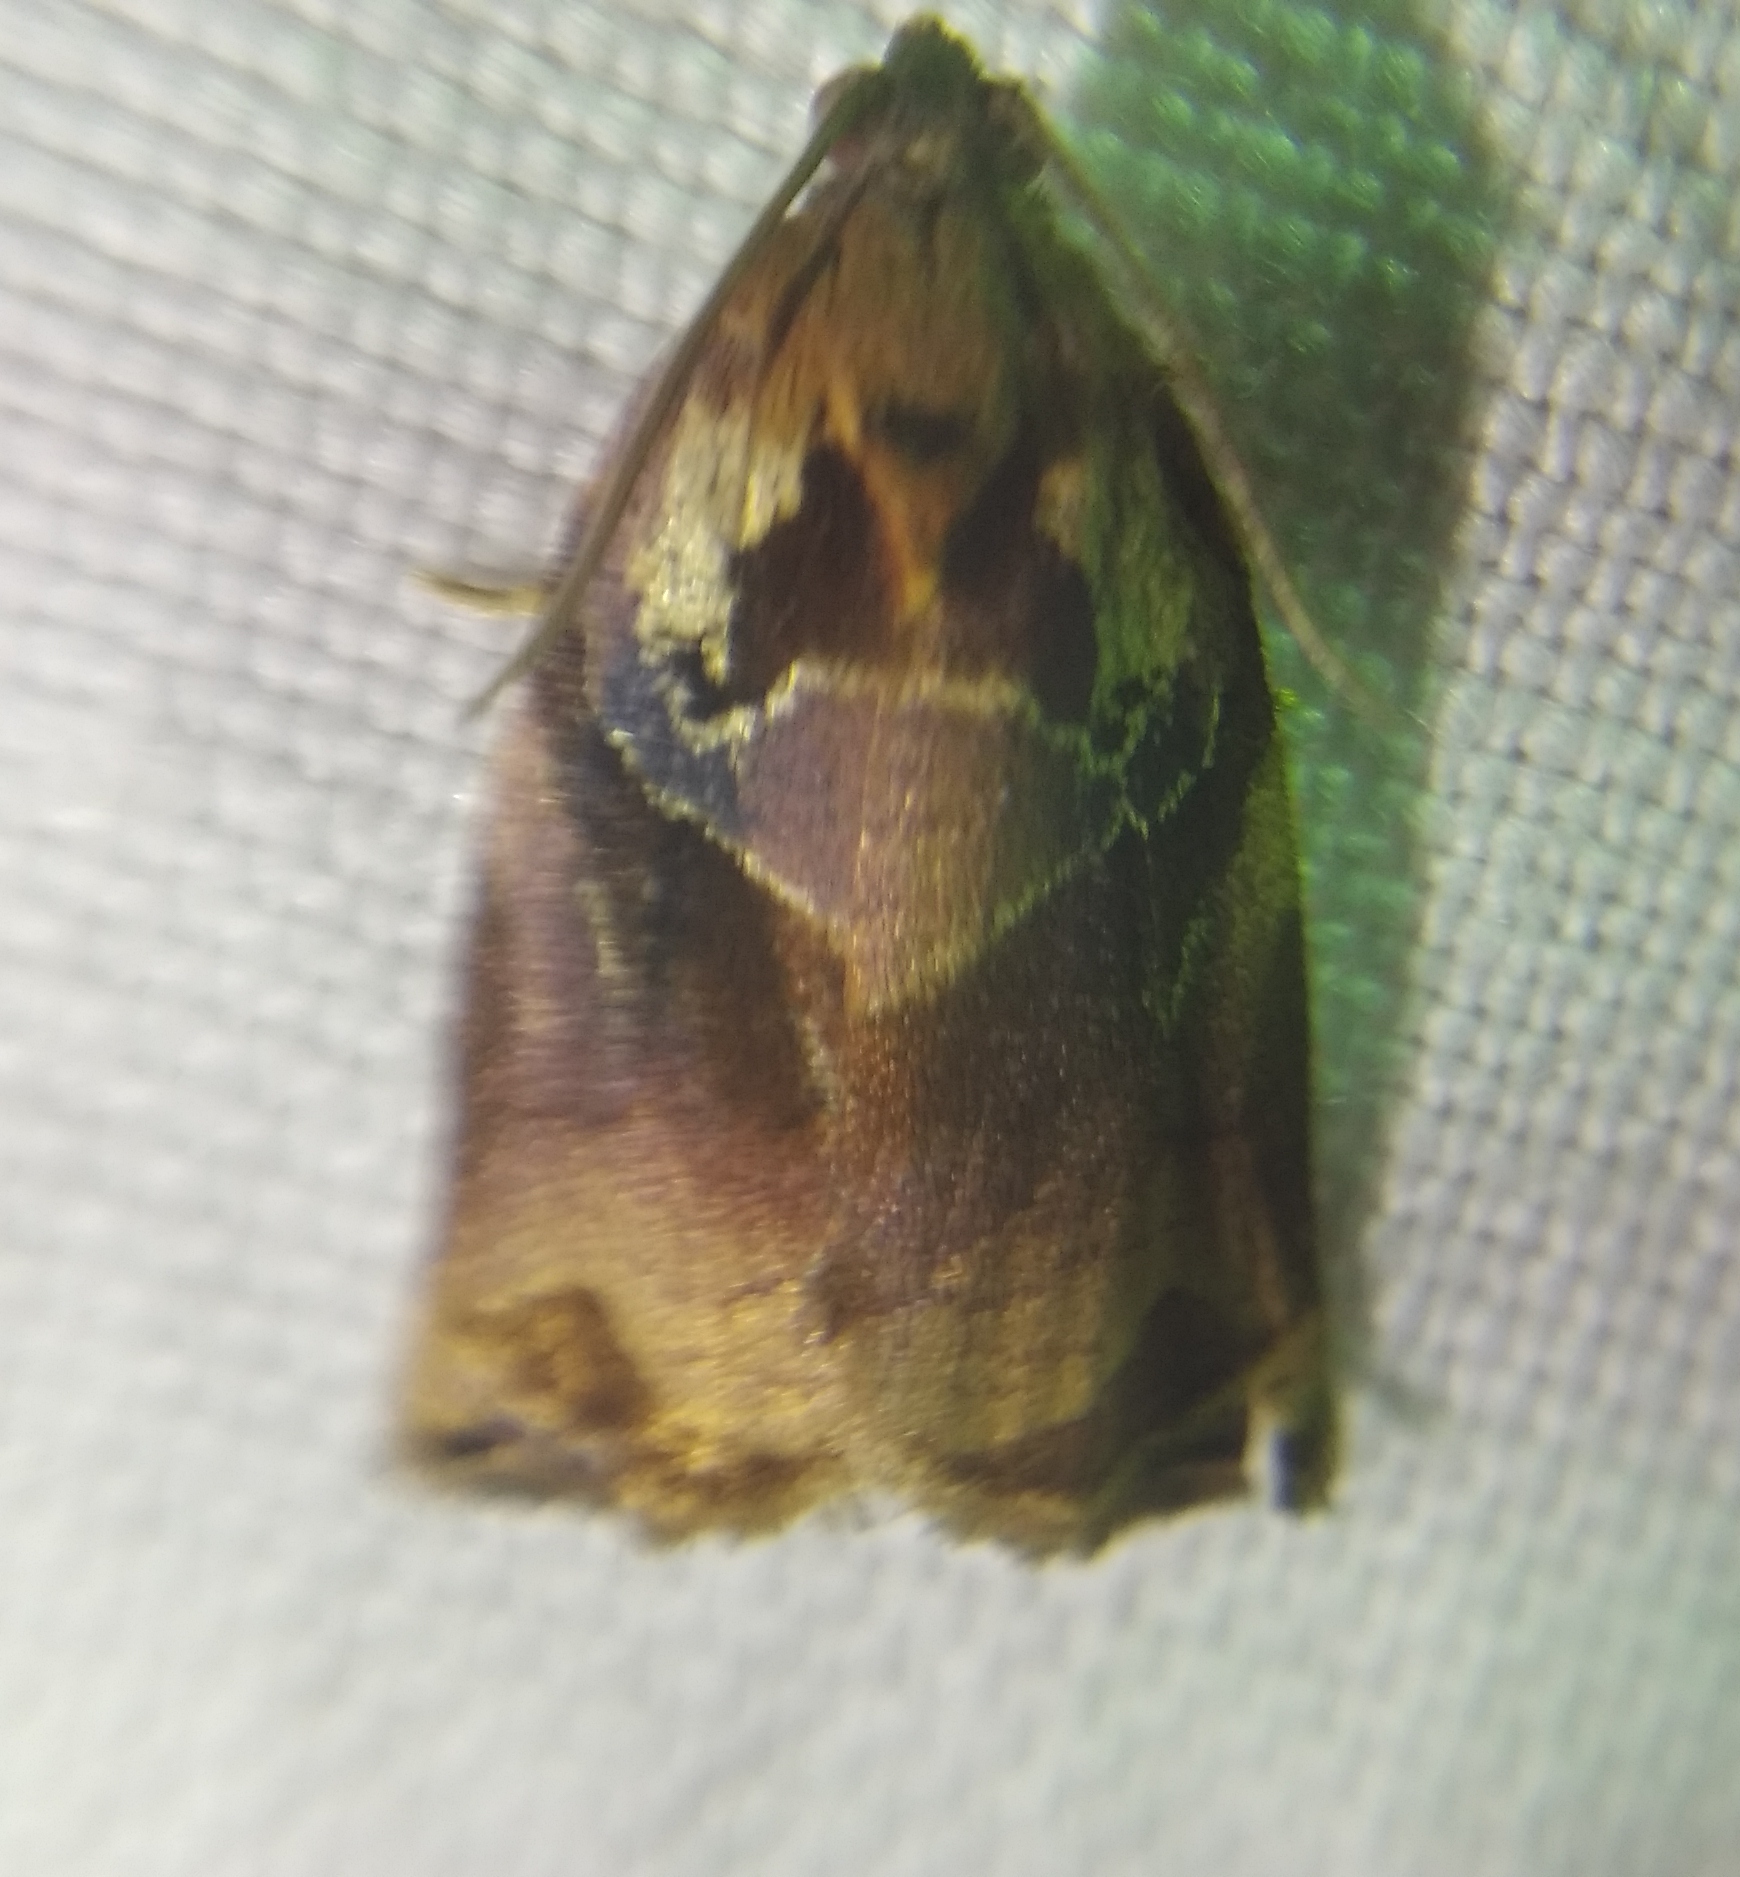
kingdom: Animalia
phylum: Arthropoda
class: Insecta
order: Lepidoptera
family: Tortricidae
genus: Archips
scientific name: Archips podana
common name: Large fruit-tree tortrix
